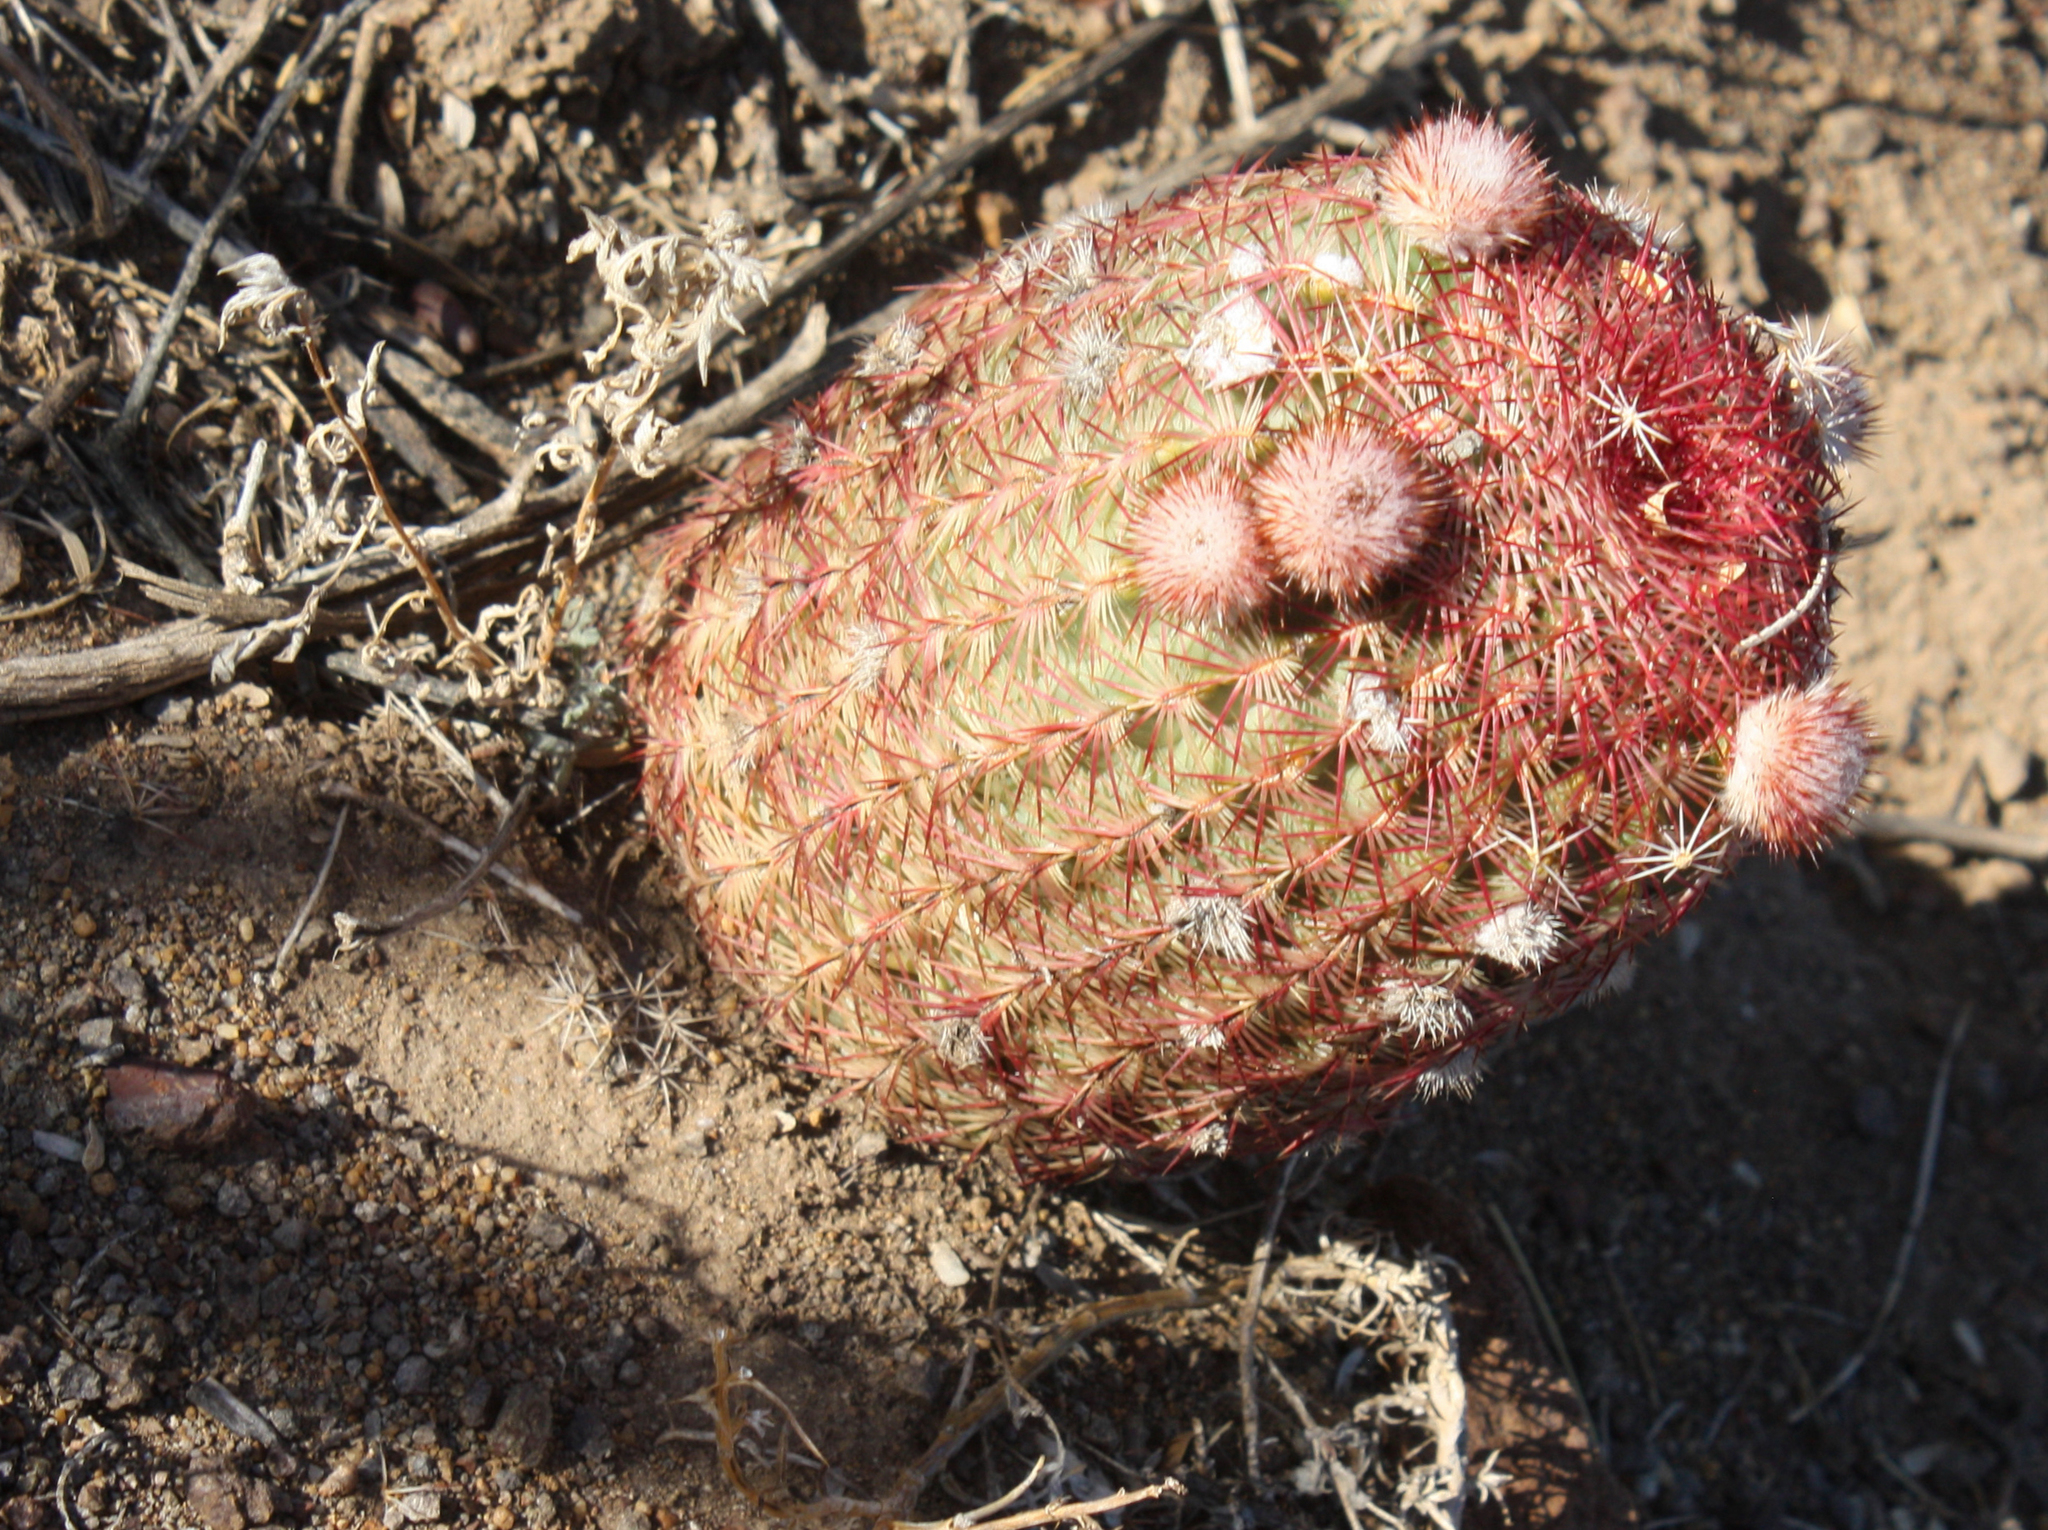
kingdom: Plantae
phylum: Tracheophyta
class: Magnoliopsida
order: Caryophyllales
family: Cactaceae
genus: Echinocereus
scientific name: Echinocereus rigidissimus
